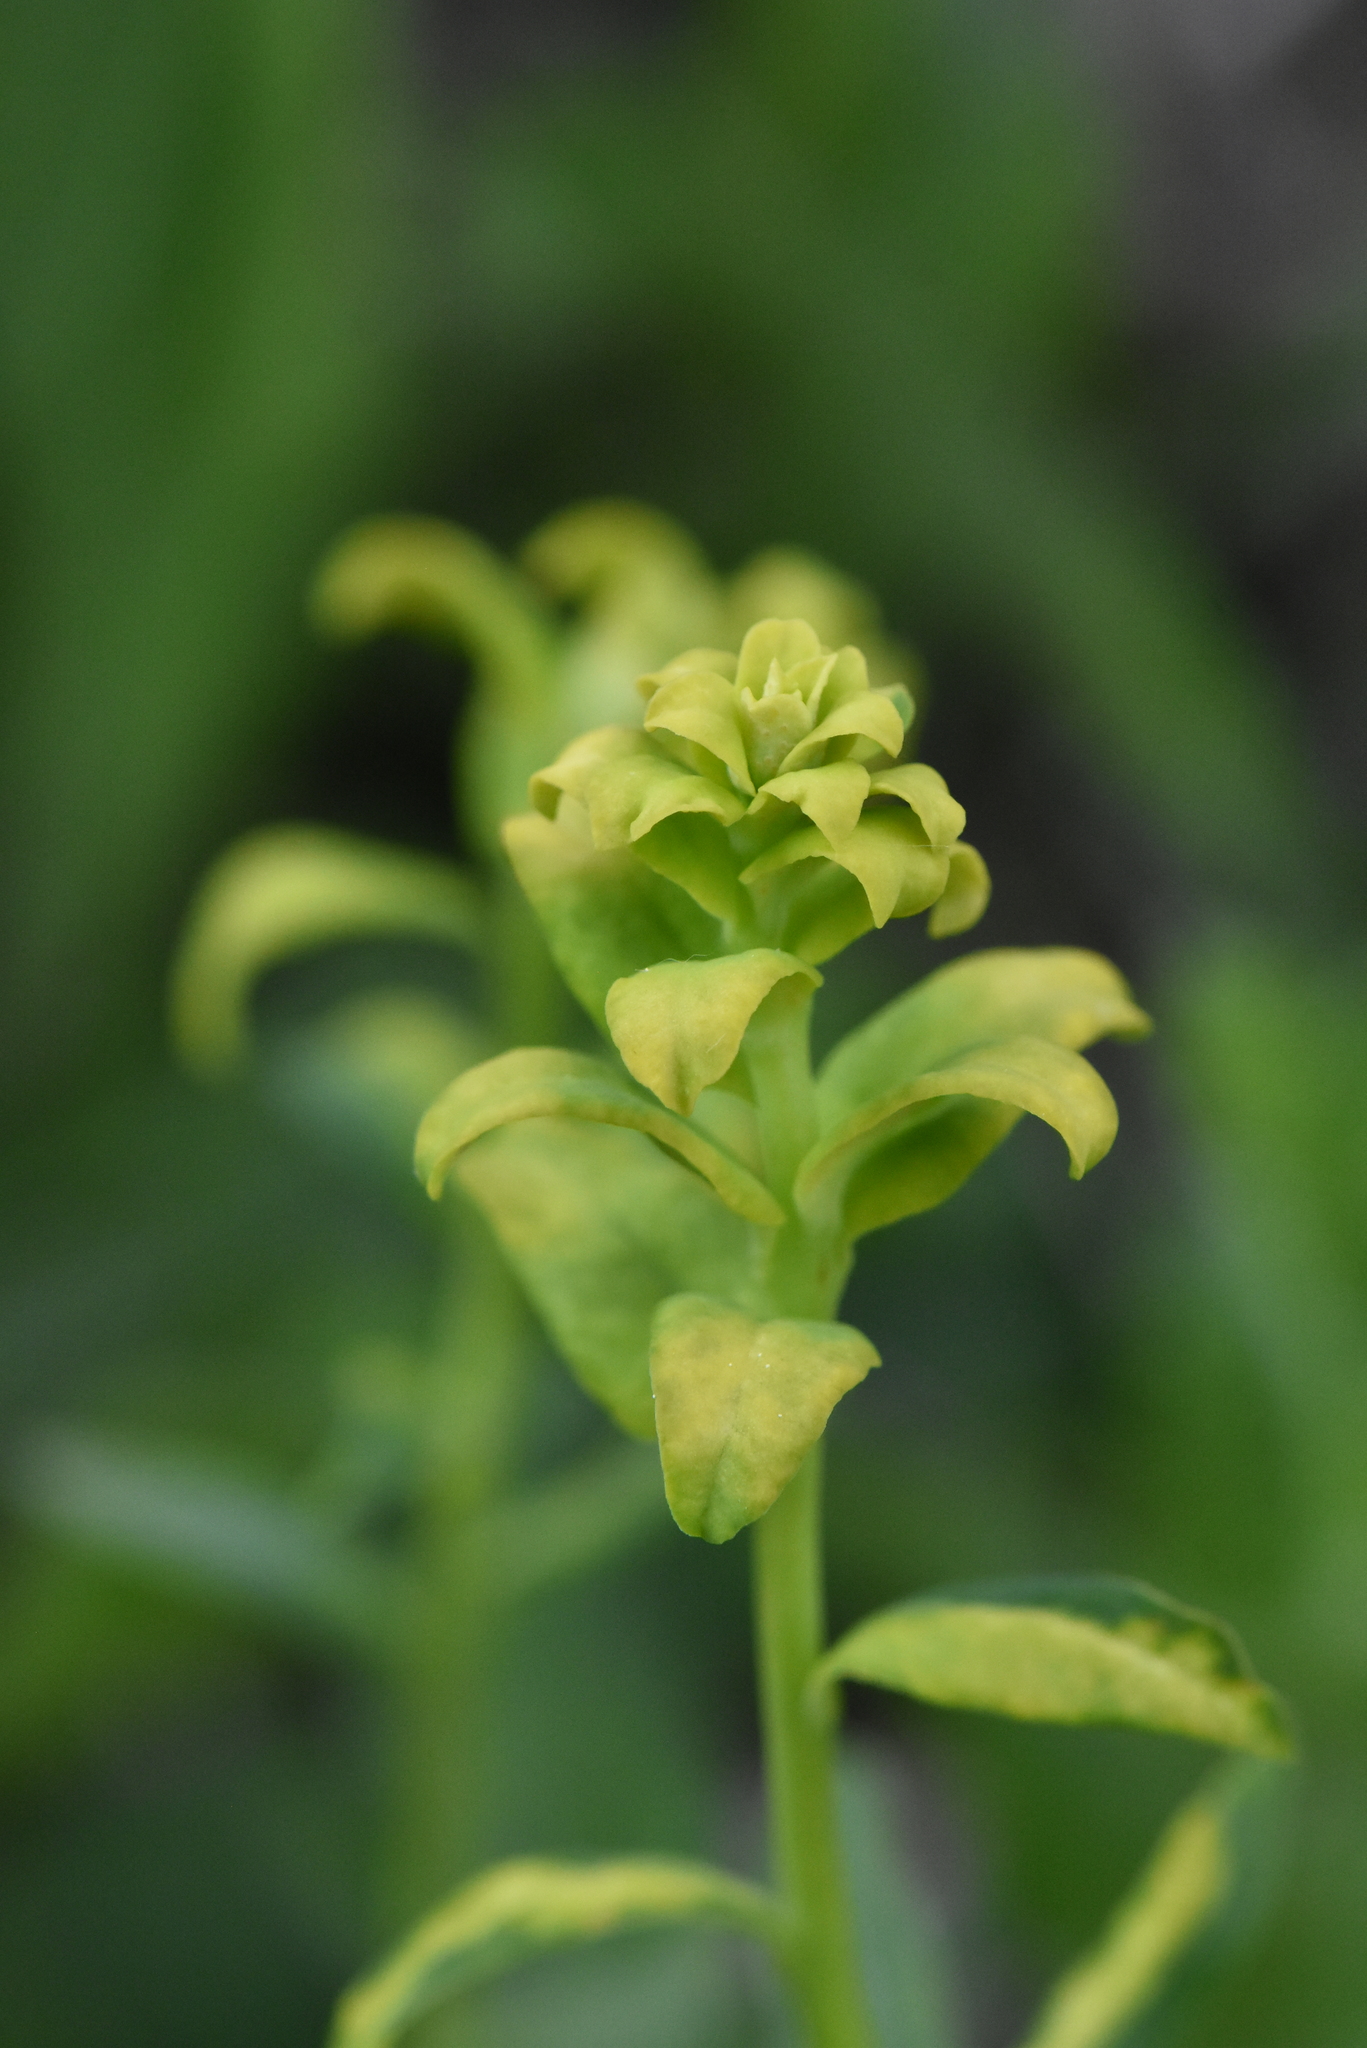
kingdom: Plantae
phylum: Tracheophyta
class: Magnoliopsida
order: Malpighiales
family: Euphorbiaceae
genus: Euphorbia
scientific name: Euphorbia virgata
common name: Leafy spurge
